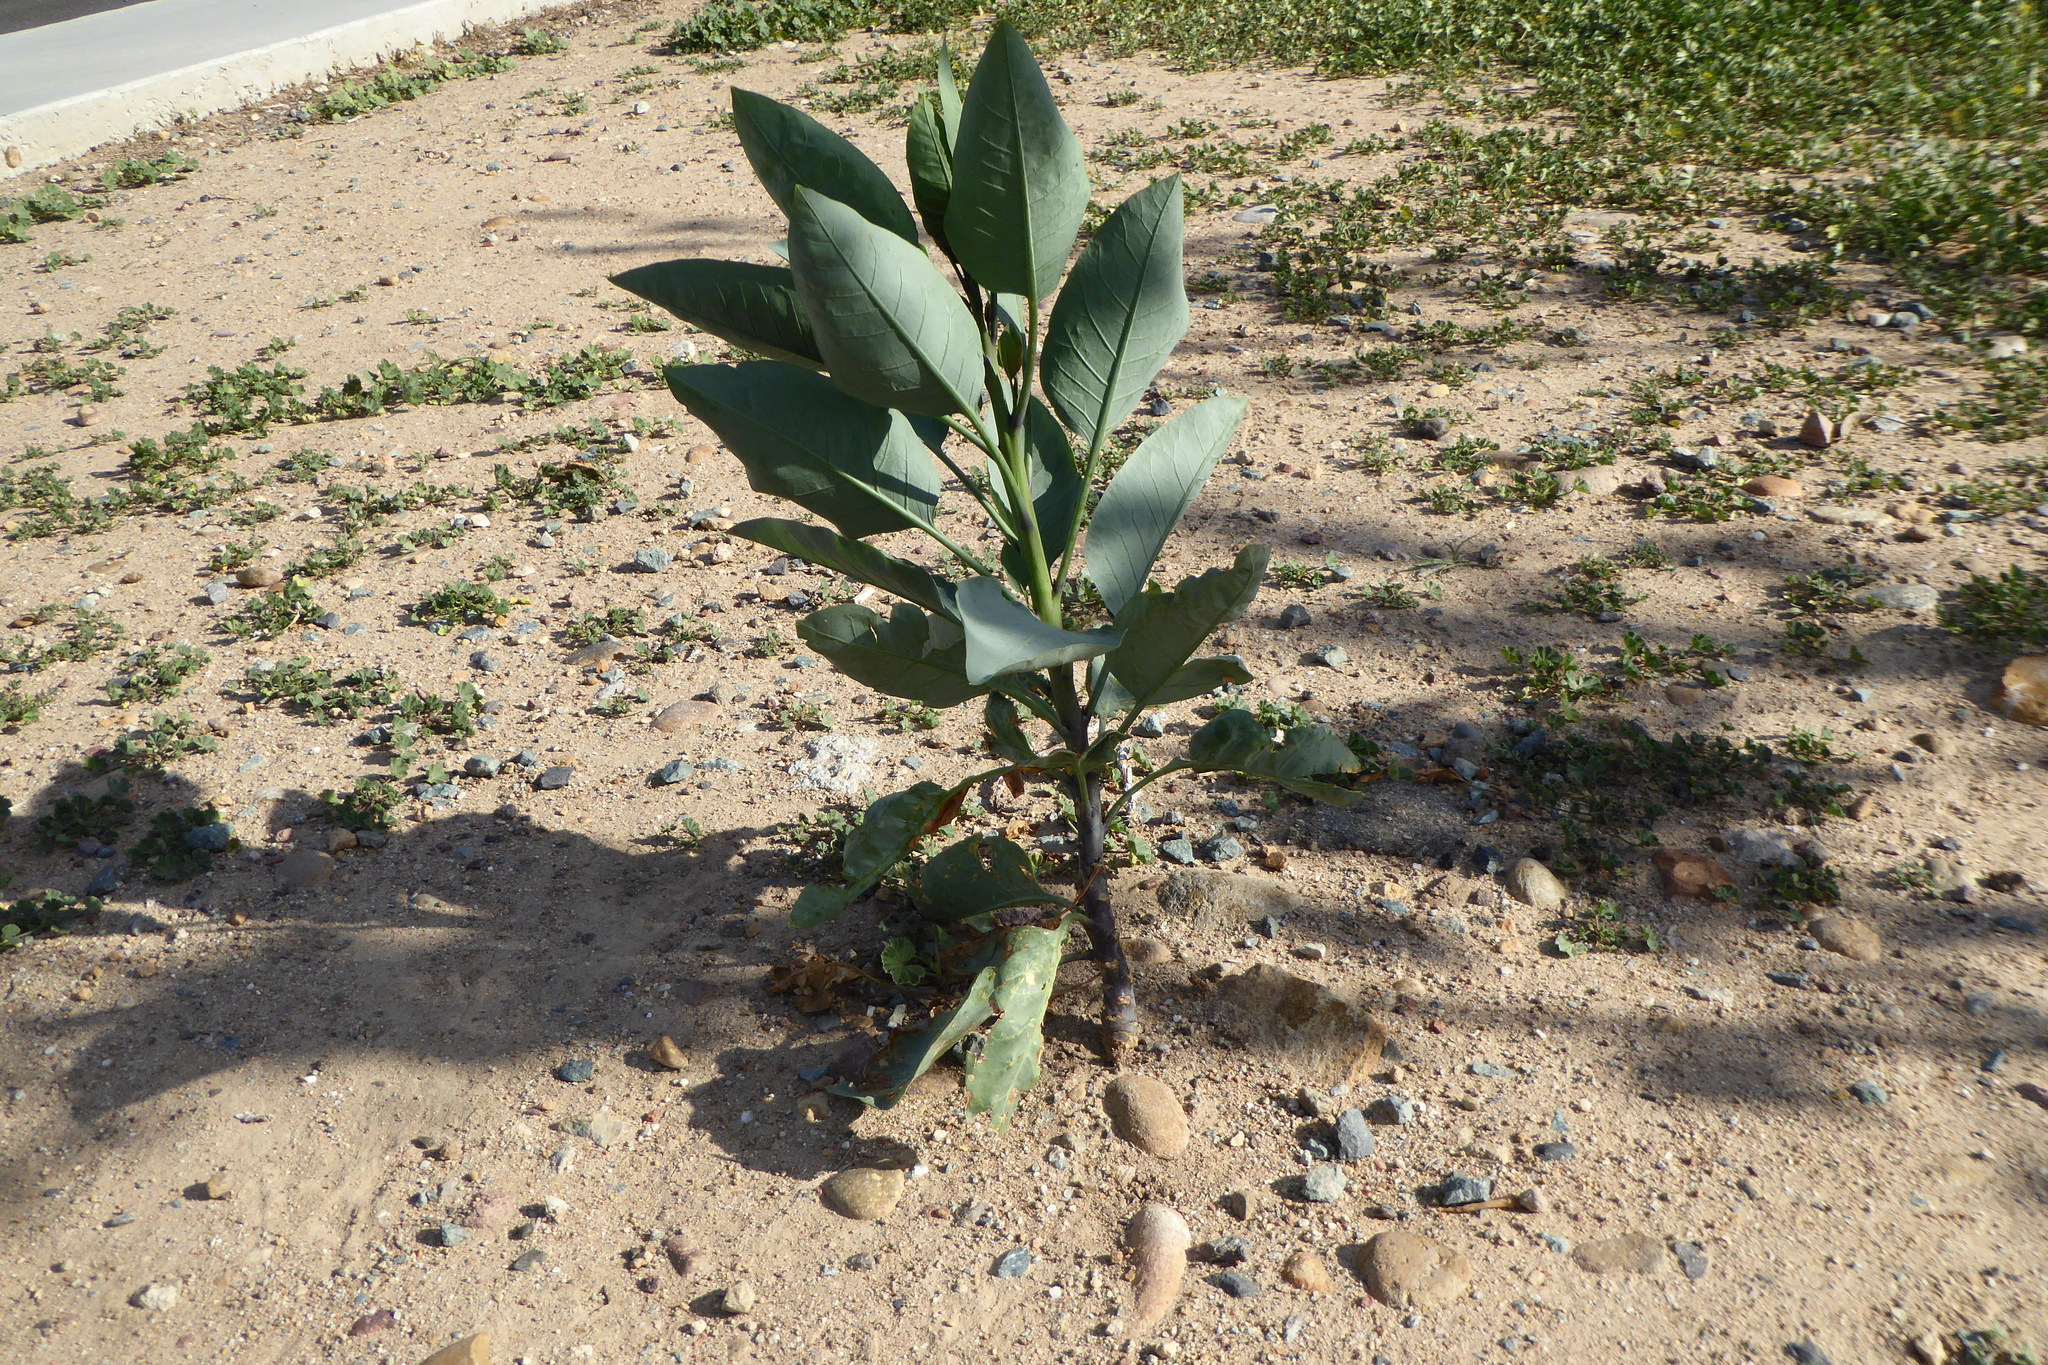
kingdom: Plantae
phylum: Tracheophyta
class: Magnoliopsida
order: Solanales
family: Solanaceae
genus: Nicotiana
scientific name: Nicotiana glauca
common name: Tree tobacco
